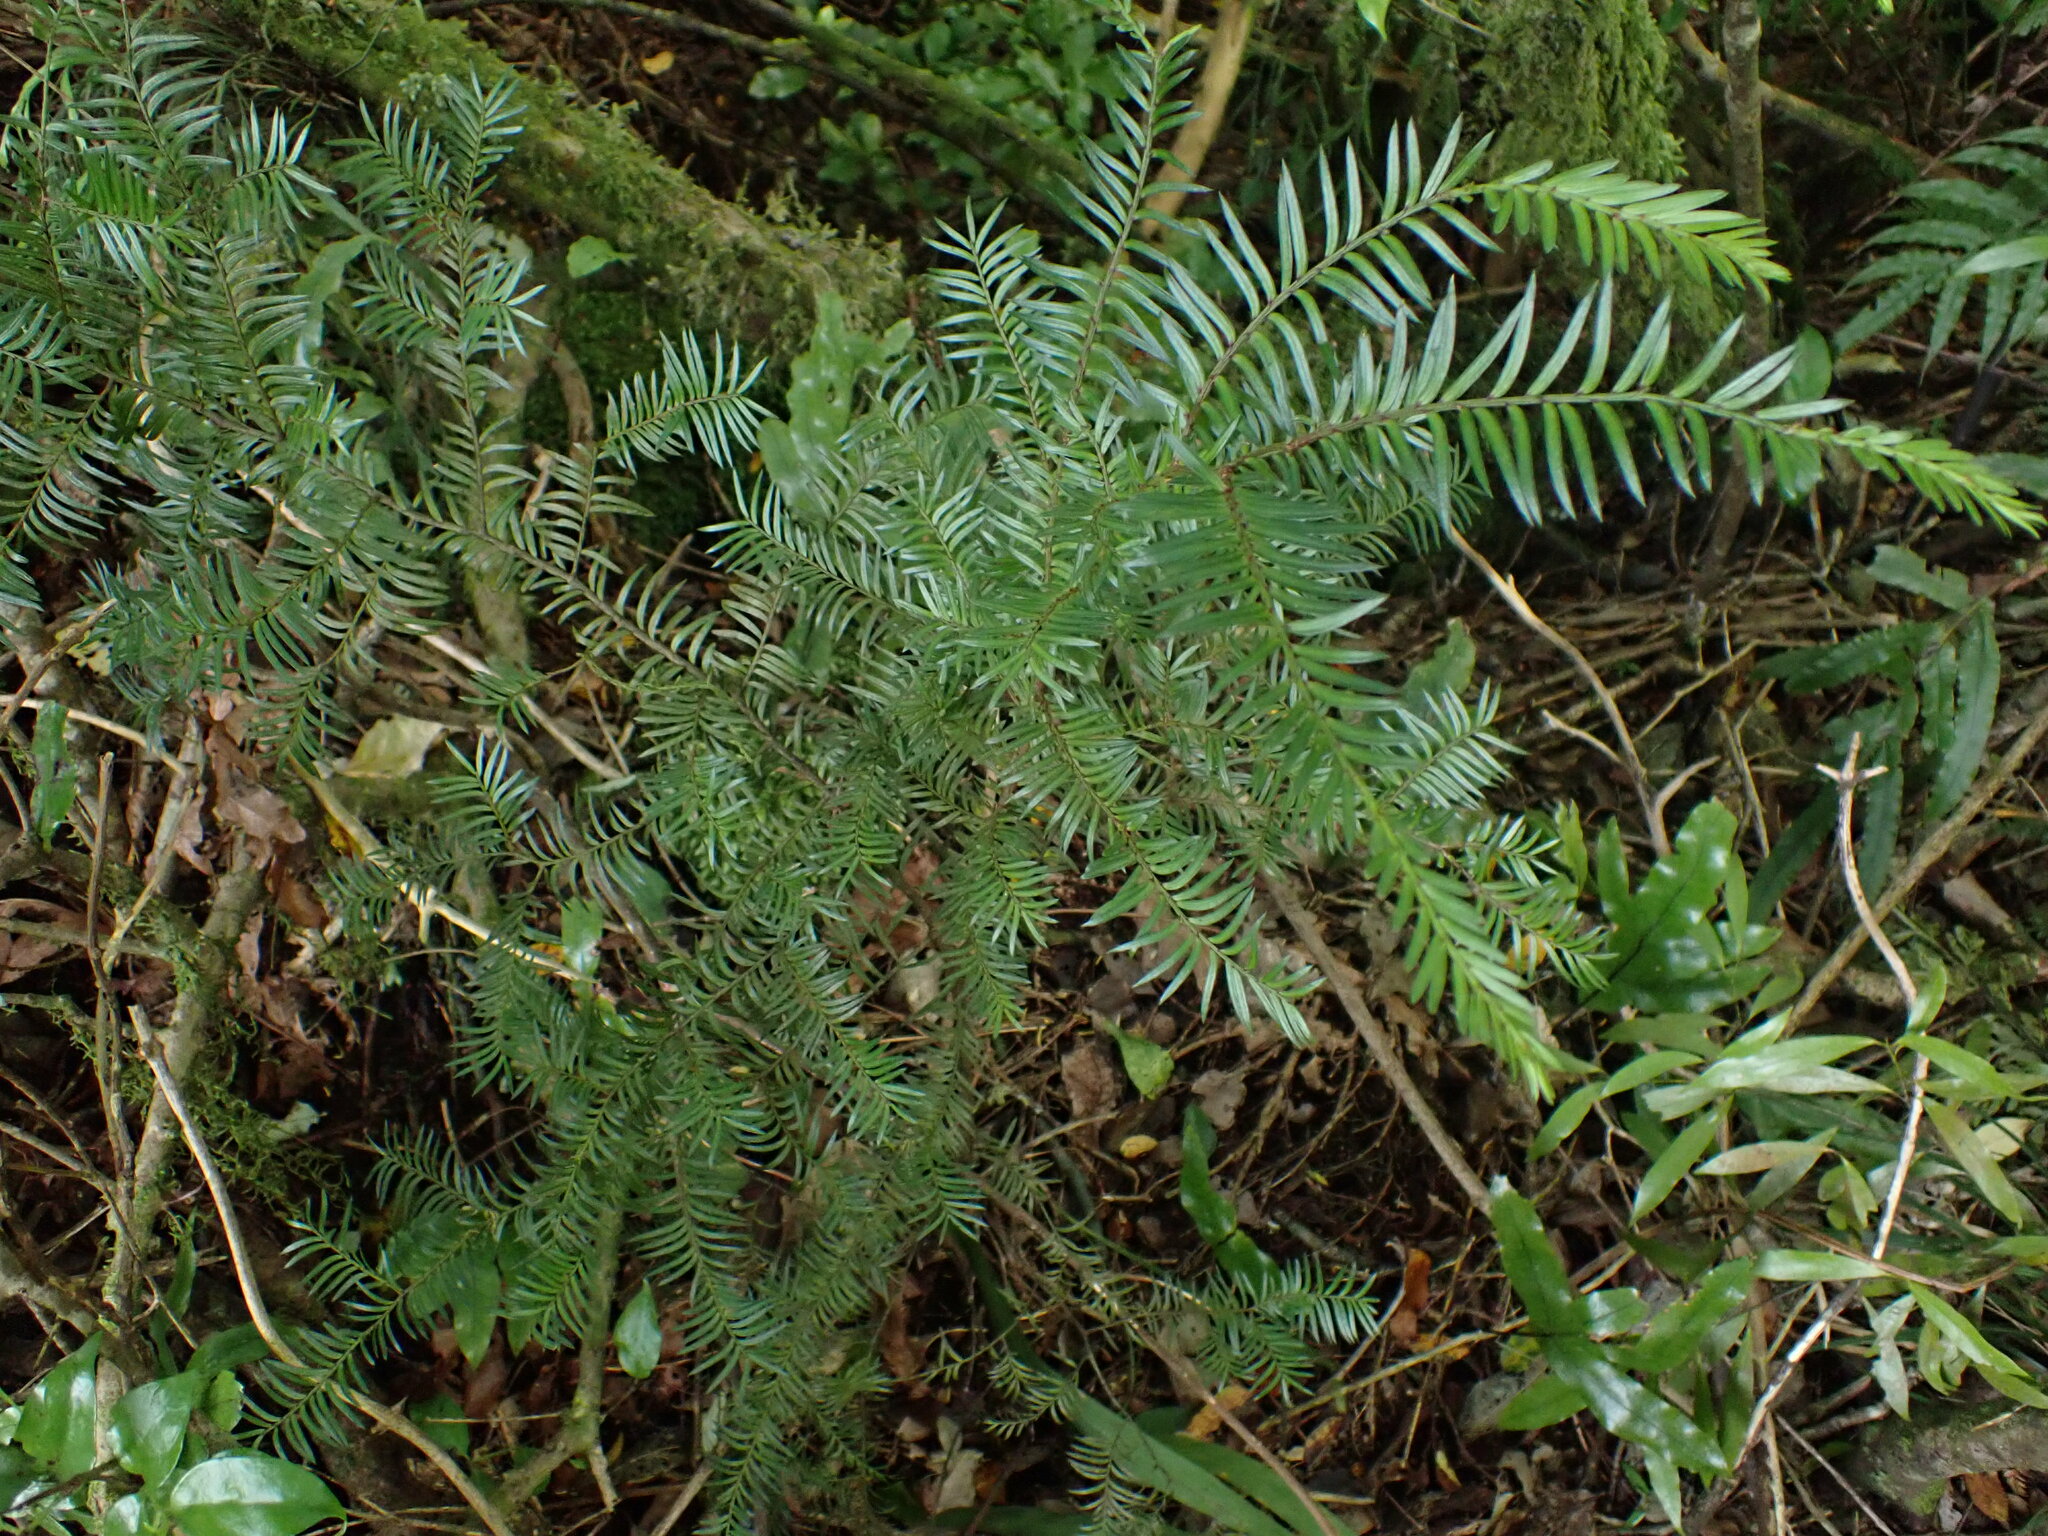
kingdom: Plantae
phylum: Tracheophyta
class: Pinopsida
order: Pinales
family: Podocarpaceae
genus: Prumnopitys
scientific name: Prumnopitys ferruginea
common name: Brown pine
